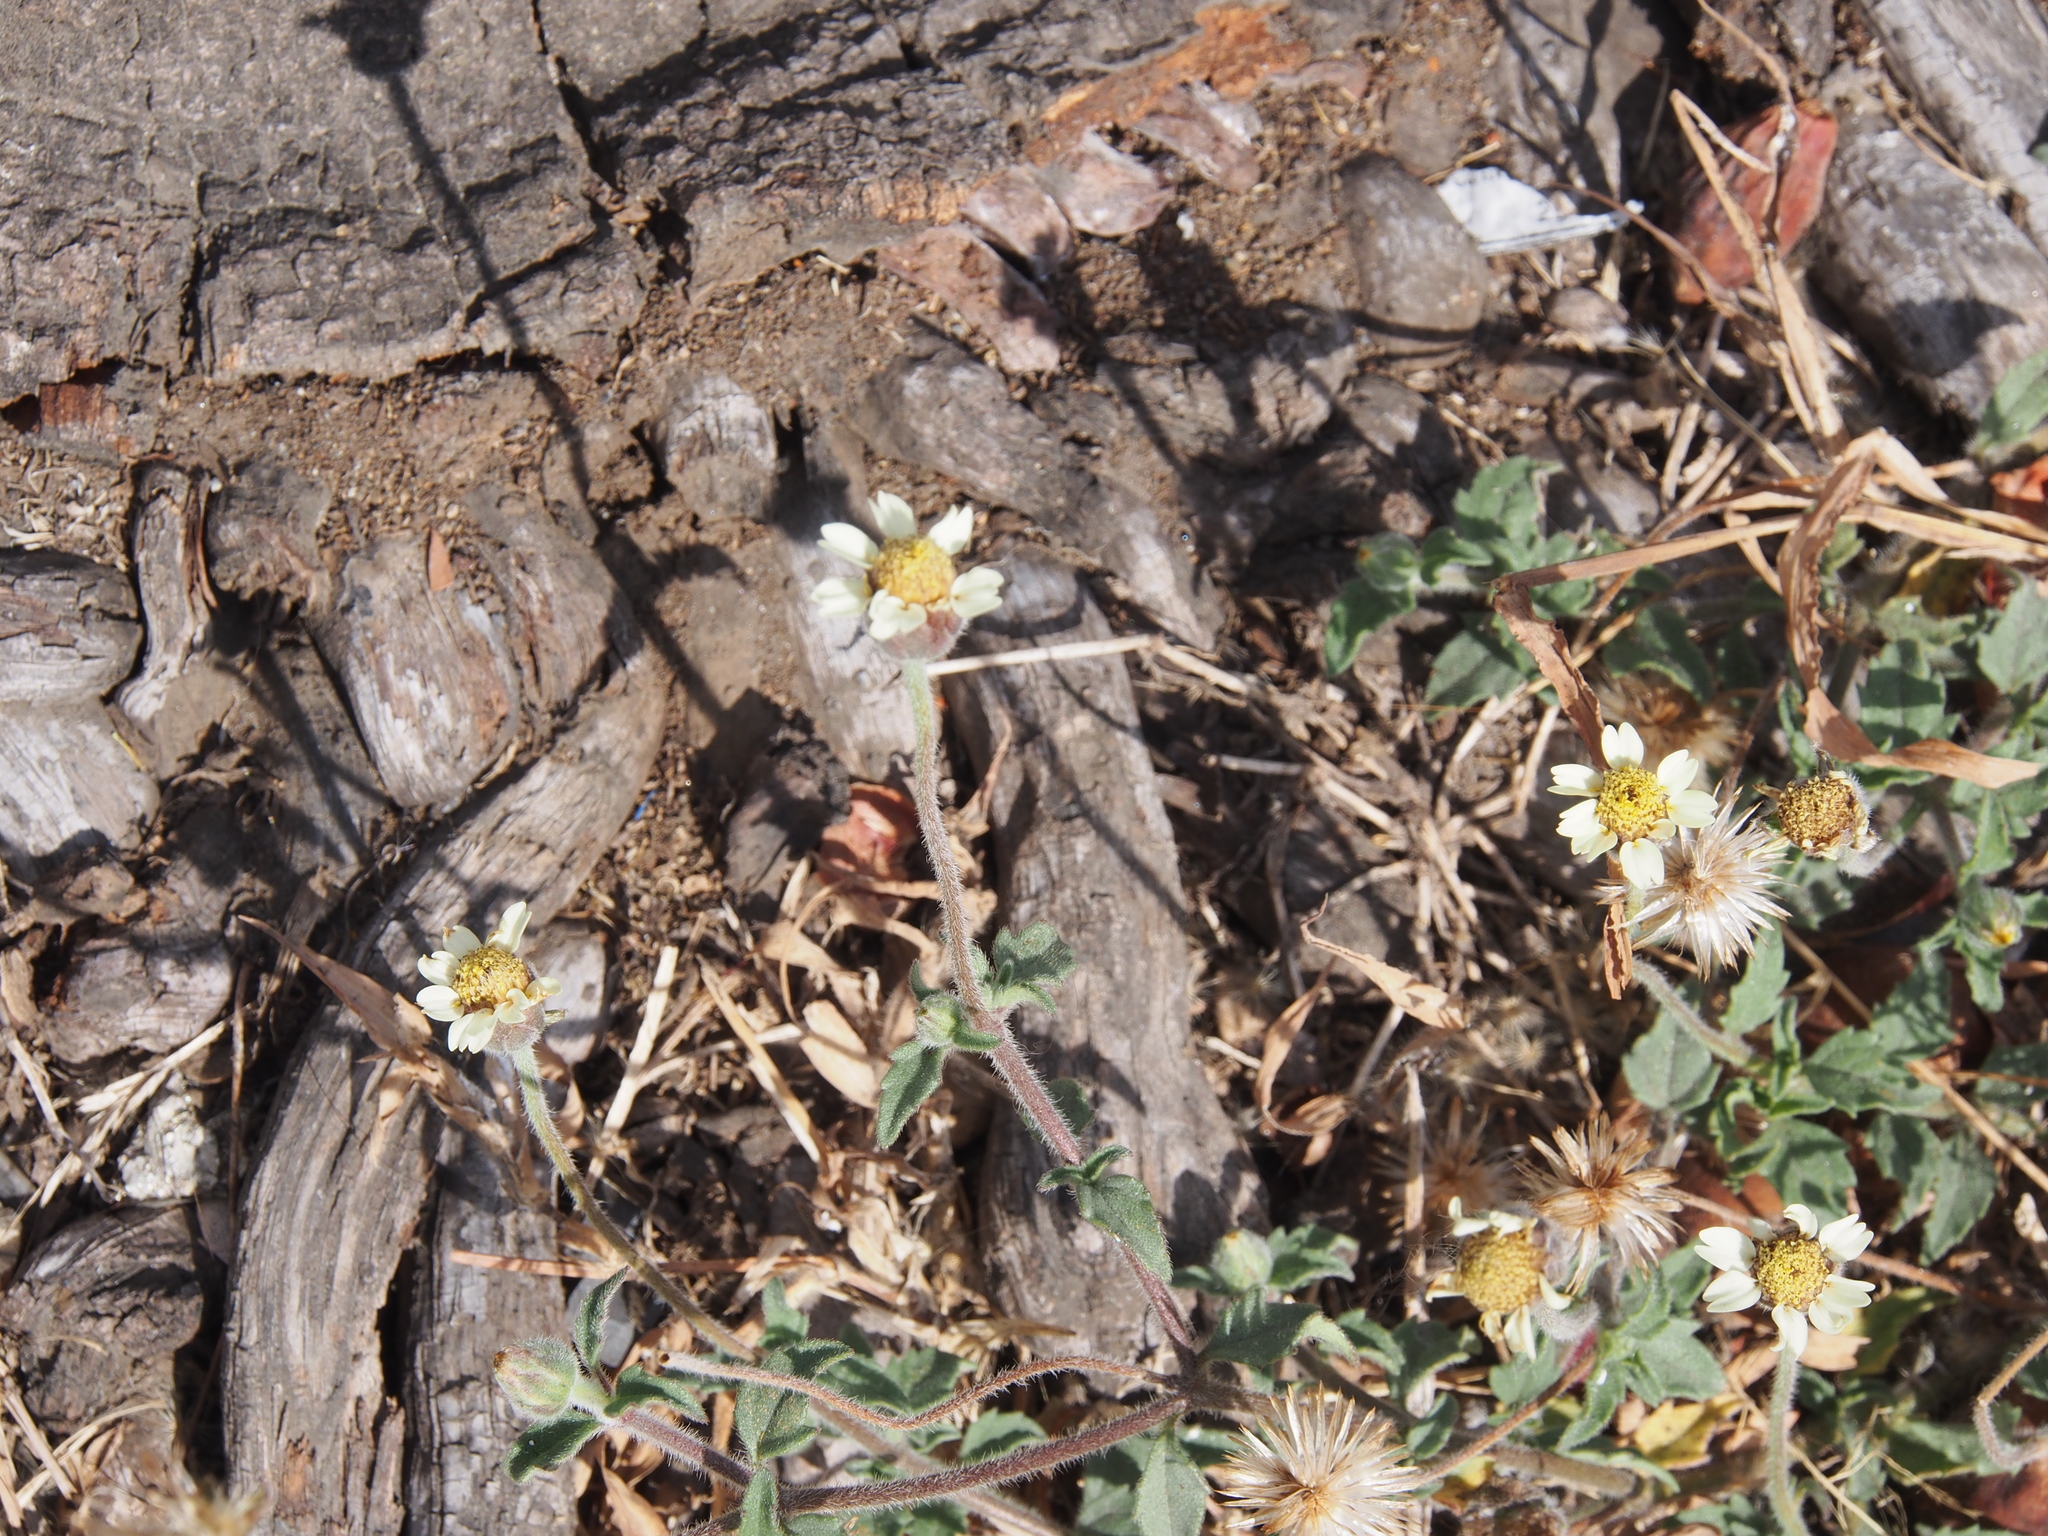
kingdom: Plantae
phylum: Tracheophyta
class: Magnoliopsida
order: Asterales
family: Asteraceae
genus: Tridax
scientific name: Tridax procumbens
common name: Coatbuttons
